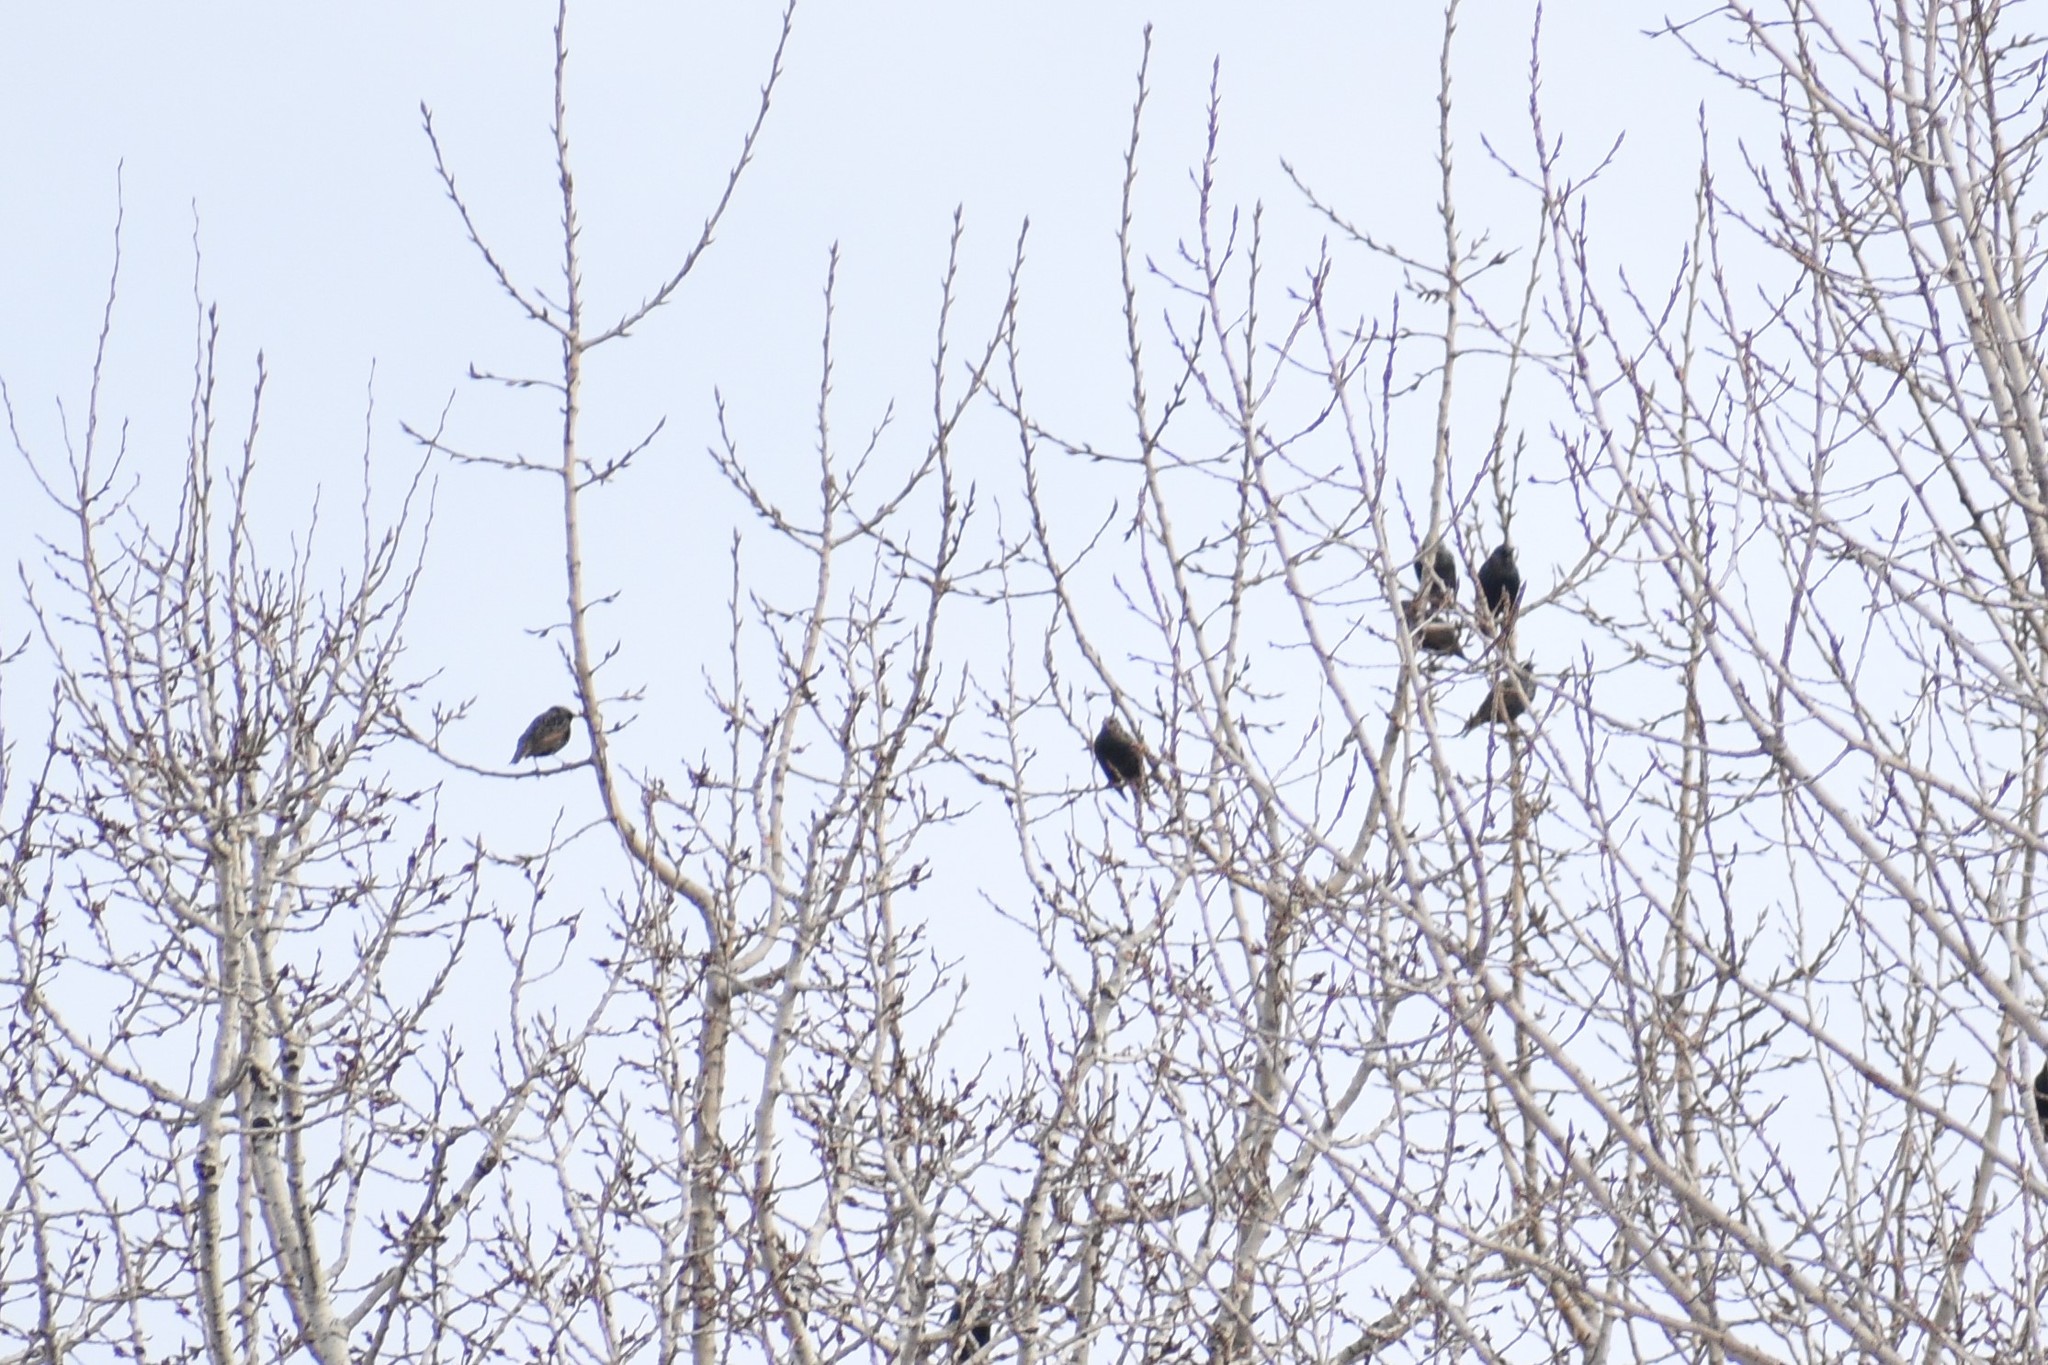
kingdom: Animalia
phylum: Chordata
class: Aves
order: Passeriformes
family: Sturnidae
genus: Sturnus
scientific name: Sturnus vulgaris
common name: Common starling
